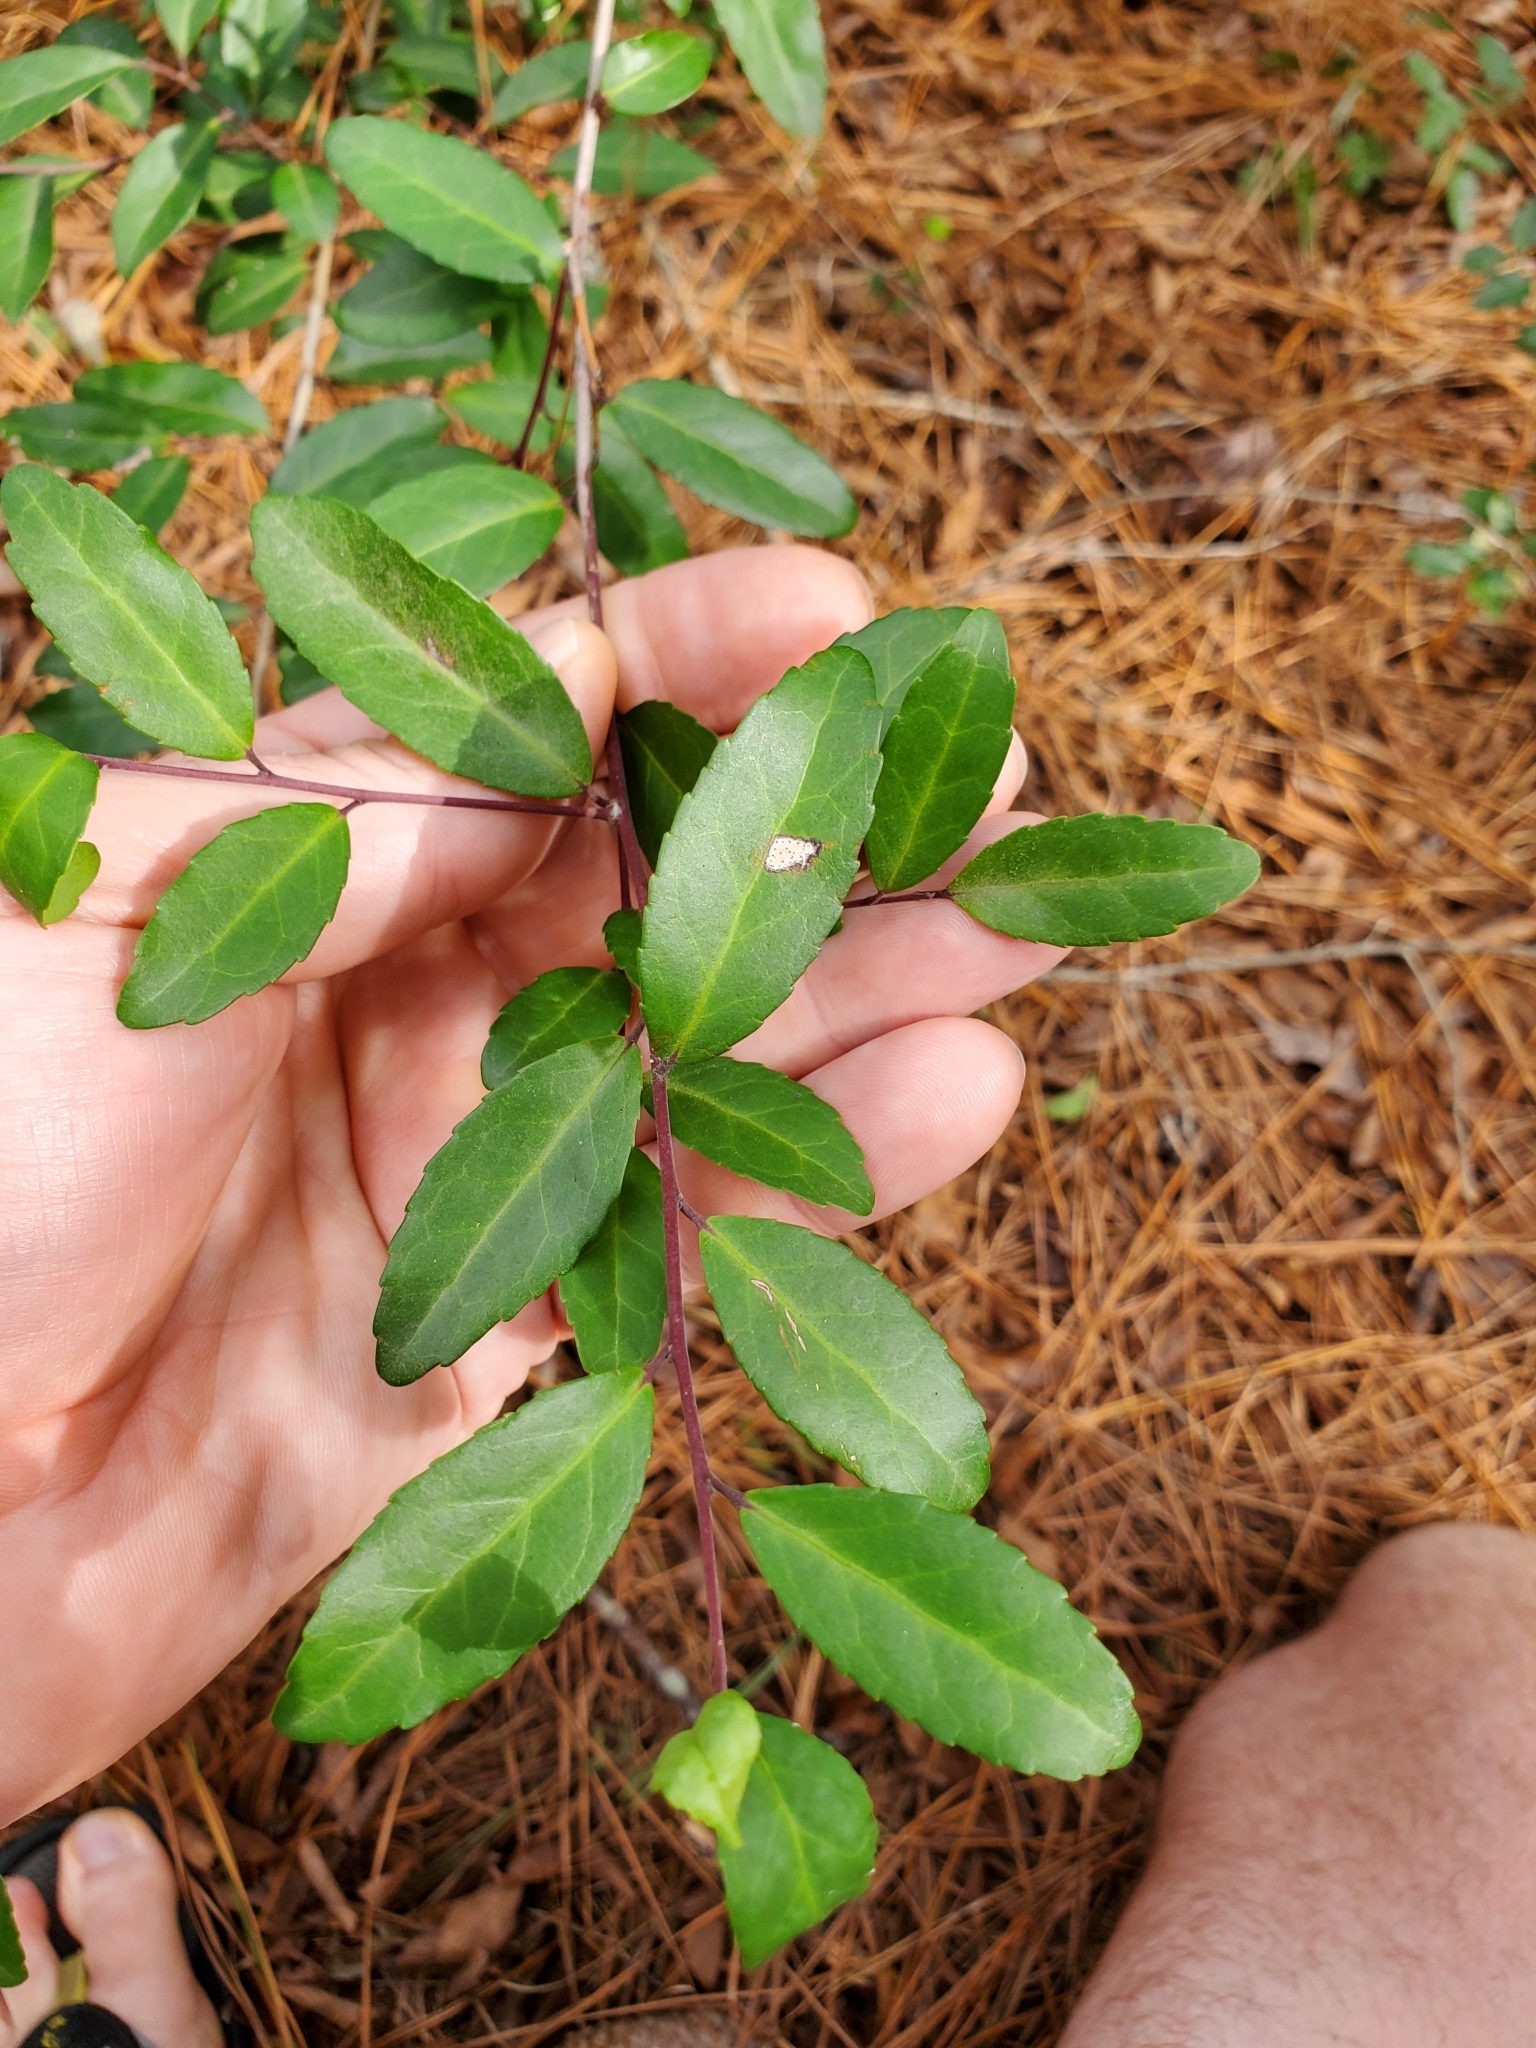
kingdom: Plantae
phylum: Tracheophyta
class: Magnoliopsida
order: Aquifoliales
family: Aquifoliaceae
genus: Ilex
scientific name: Ilex vomitoria
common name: Yaupon holly
